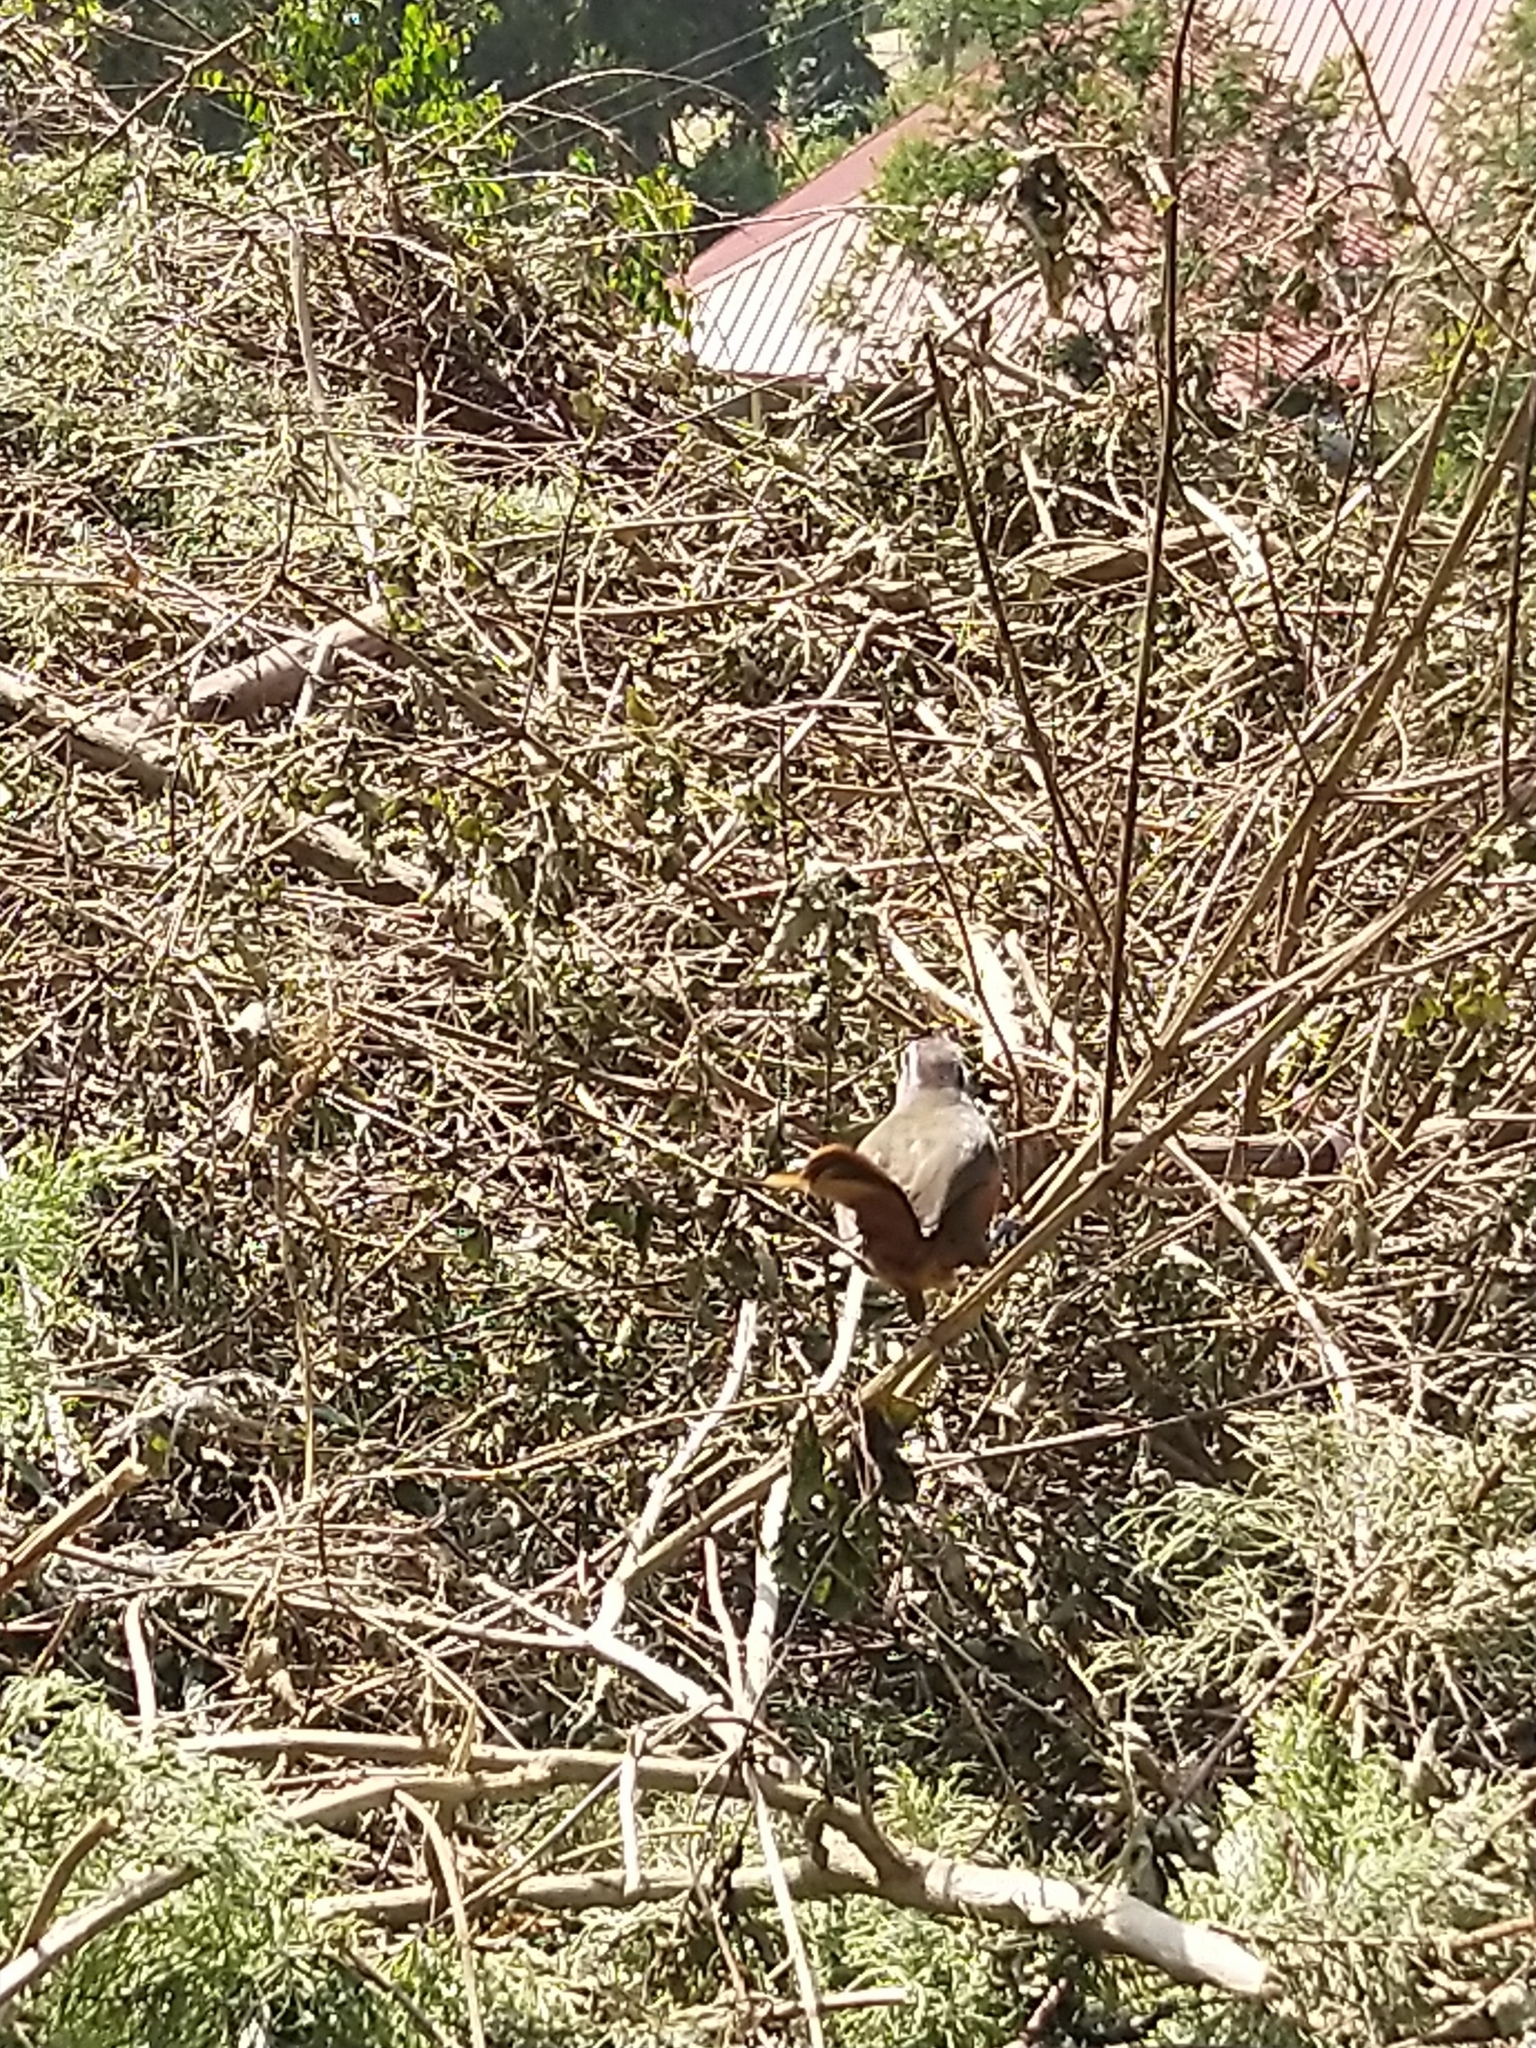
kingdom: Animalia
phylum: Chordata
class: Aves
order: Passeriformes
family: Leiothrichidae
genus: Trochalopteron
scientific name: Trochalopteron fairbanki
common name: Kerala laughingthrush
